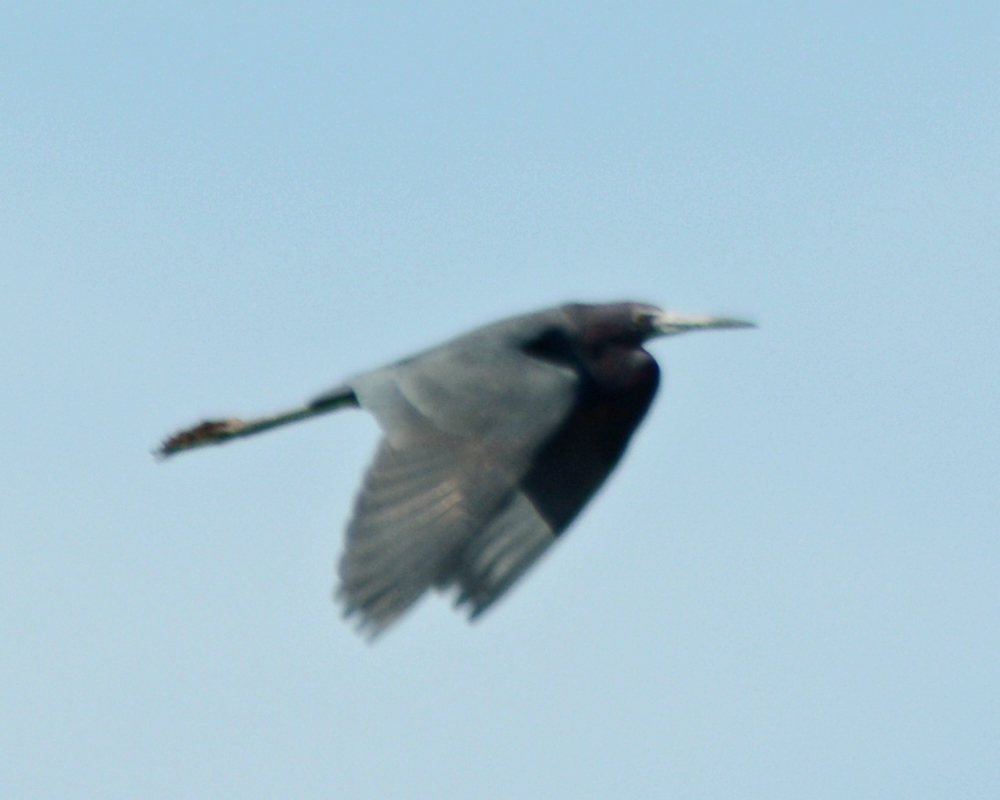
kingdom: Animalia
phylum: Chordata
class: Aves
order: Pelecaniformes
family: Ardeidae
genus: Egretta
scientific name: Egretta caerulea
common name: Little blue heron
